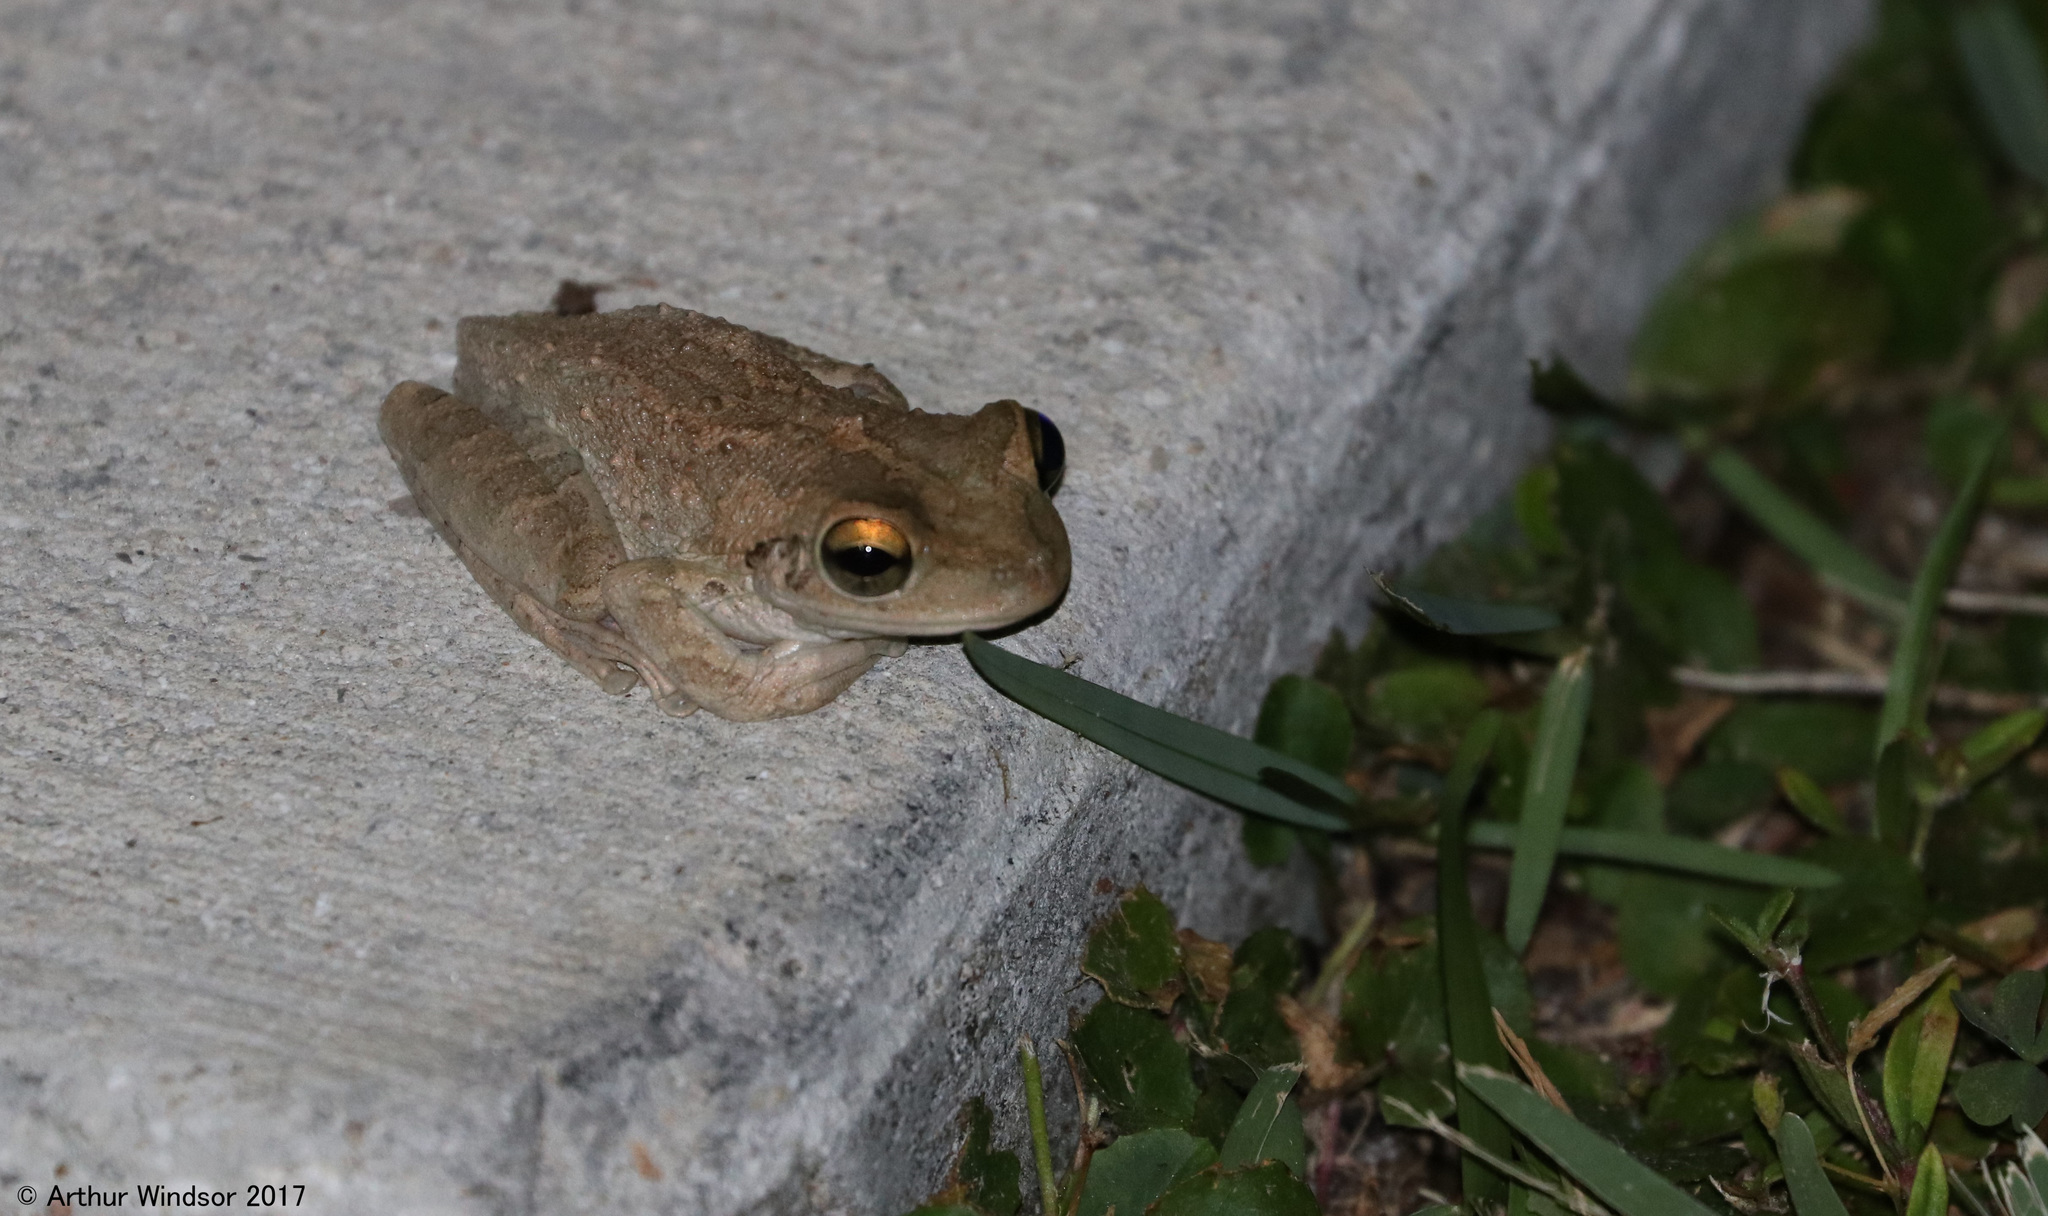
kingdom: Animalia
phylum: Chordata
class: Amphibia
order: Anura
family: Hylidae
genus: Osteopilus
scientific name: Osteopilus septentrionalis
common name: Cuban treefrog
